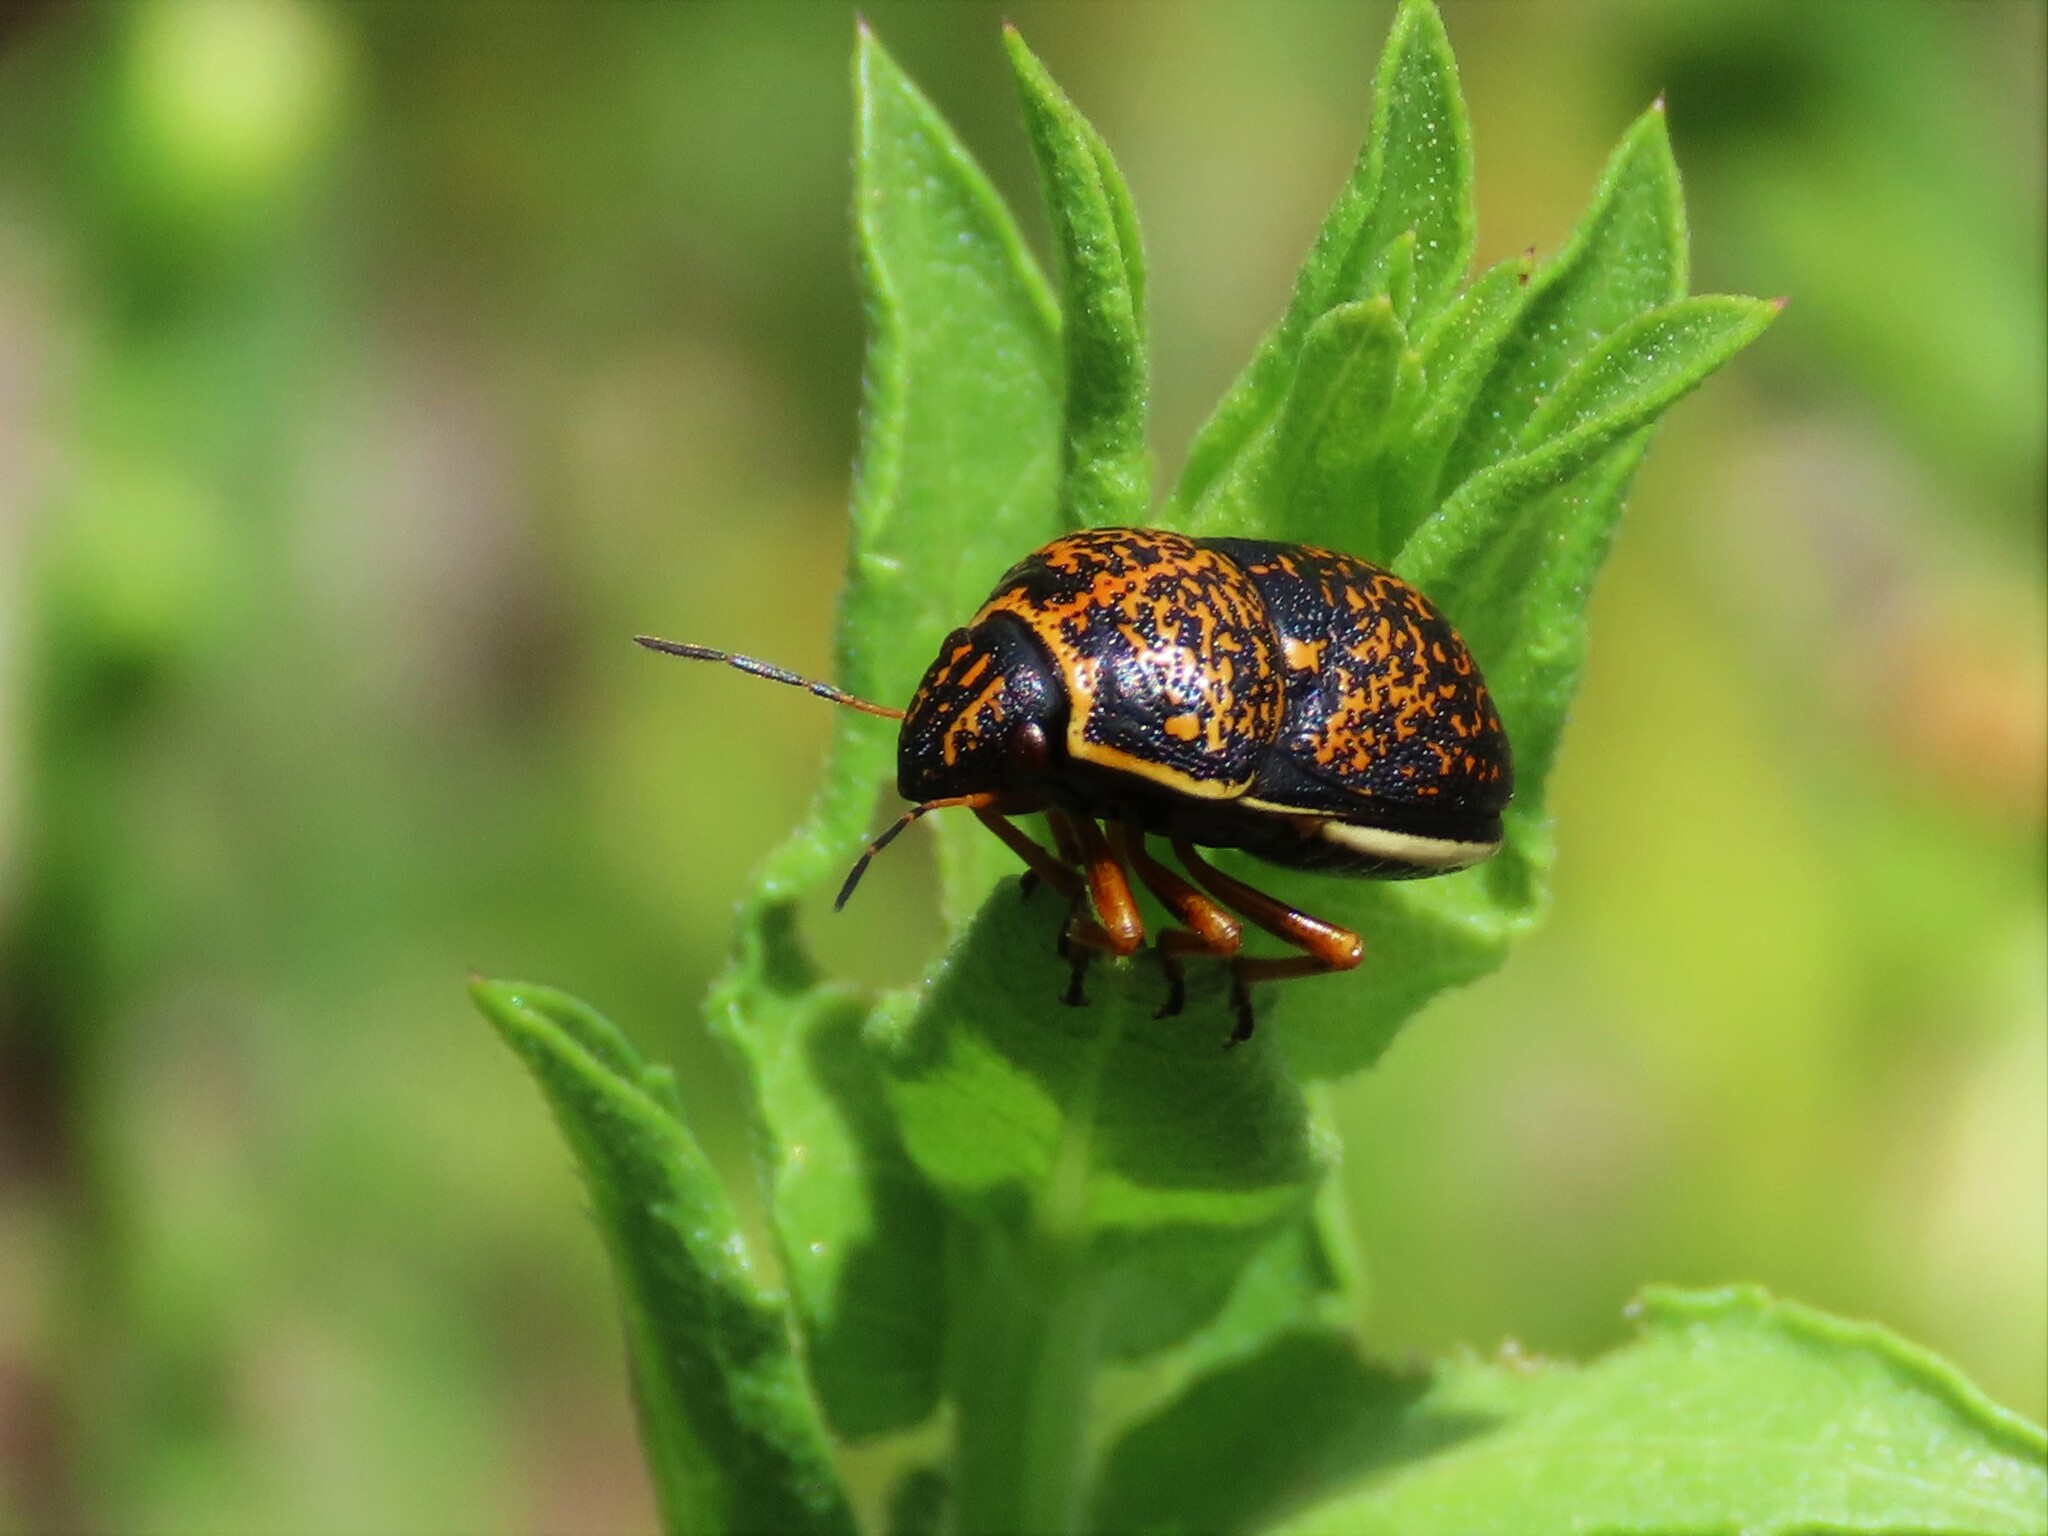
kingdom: Animalia
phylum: Arthropoda
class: Insecta
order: Hemiptera
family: Scutelleridae
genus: Orsilochides
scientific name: Orsilochides guttata
